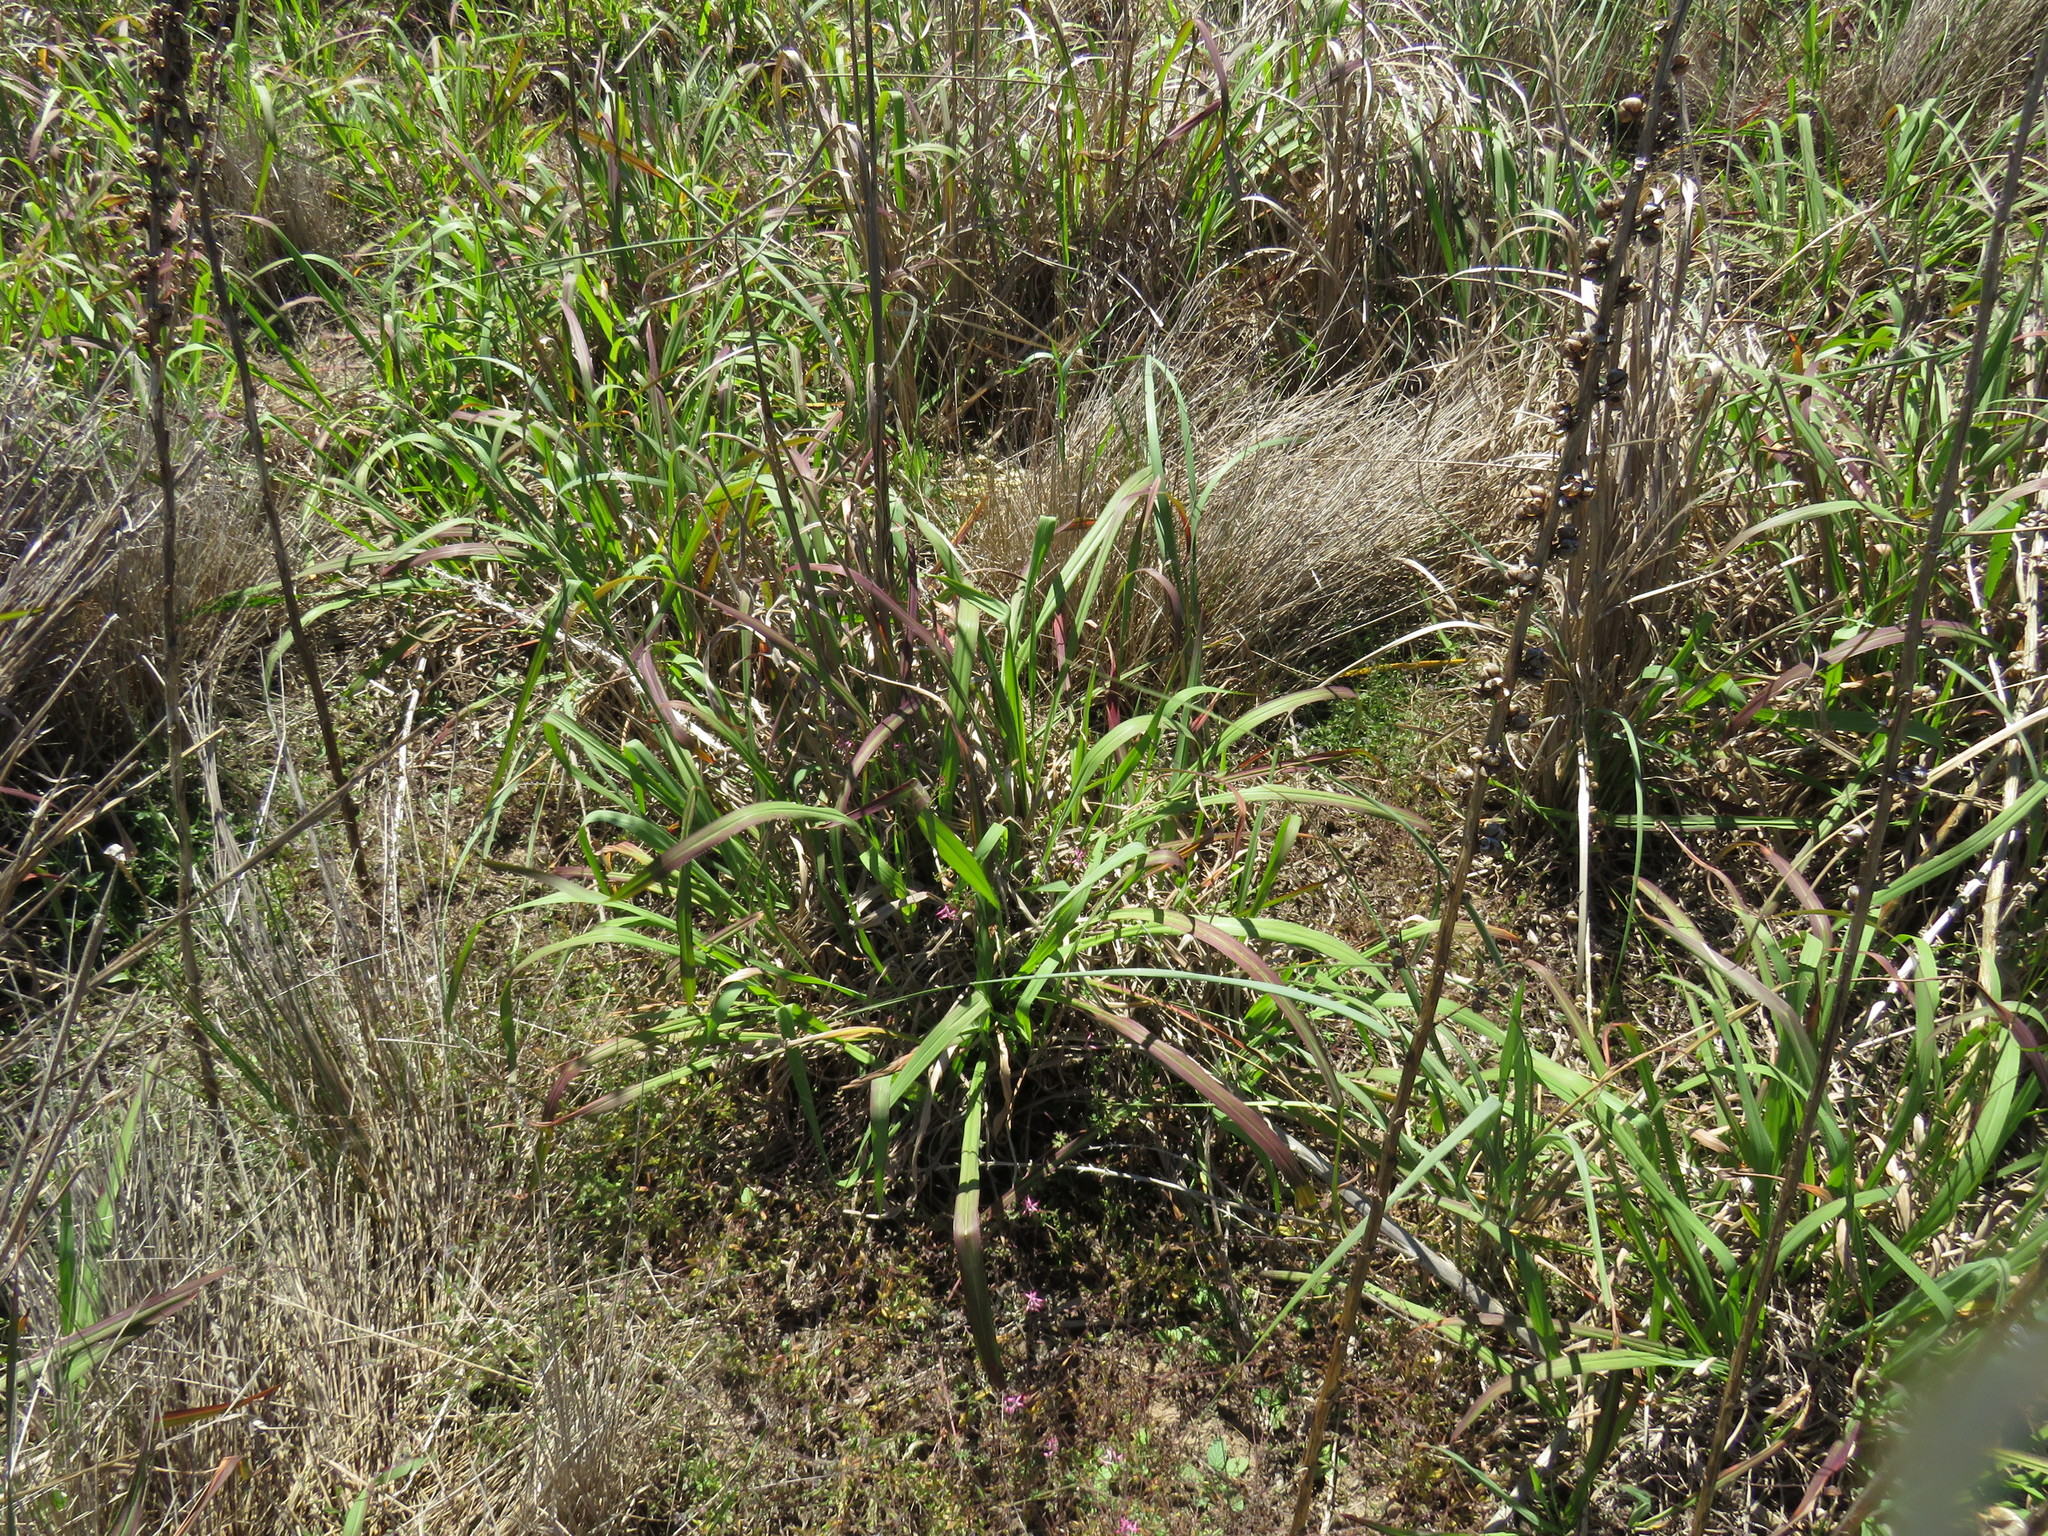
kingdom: Plantae
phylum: Tracheophyta
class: Liliopsida
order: Poales
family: Poaceae
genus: Paspalum
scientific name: Paspalum urvillei
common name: Vasey's grass
